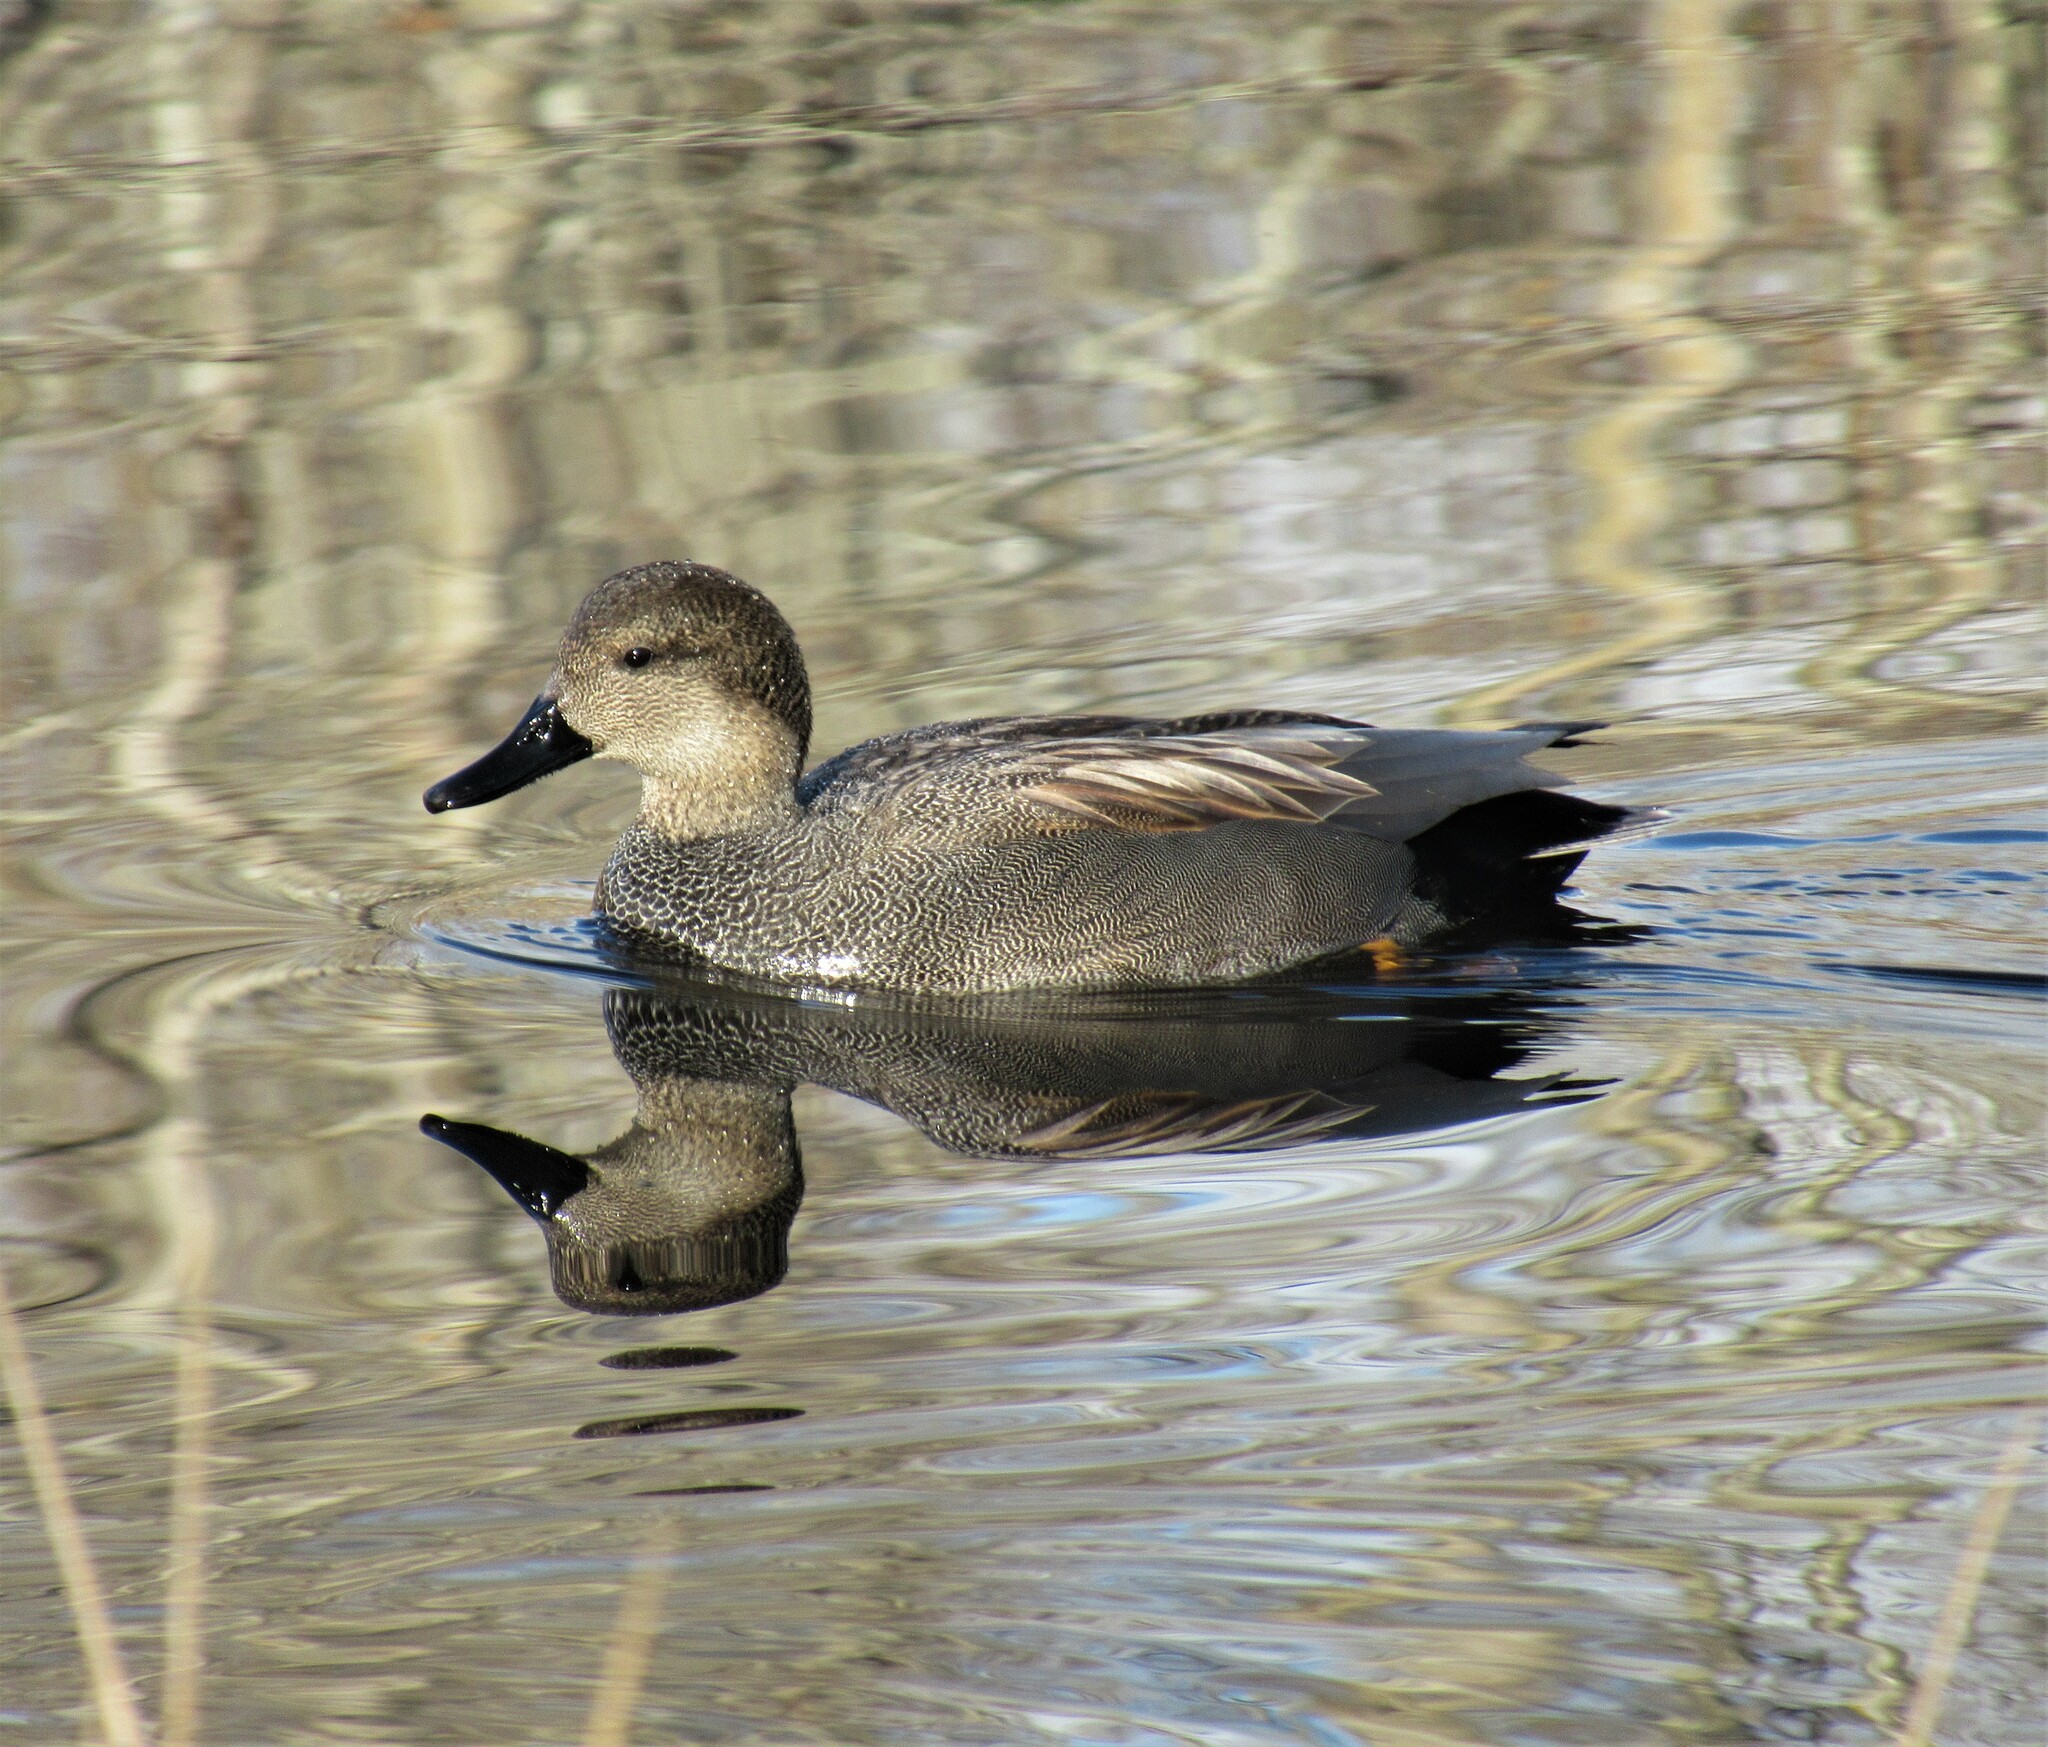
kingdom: Animalia
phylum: Chordata
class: Aves
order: Anseriformes
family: Anatidae
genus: Mareca
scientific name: Mareca strepera
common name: Gadwall
